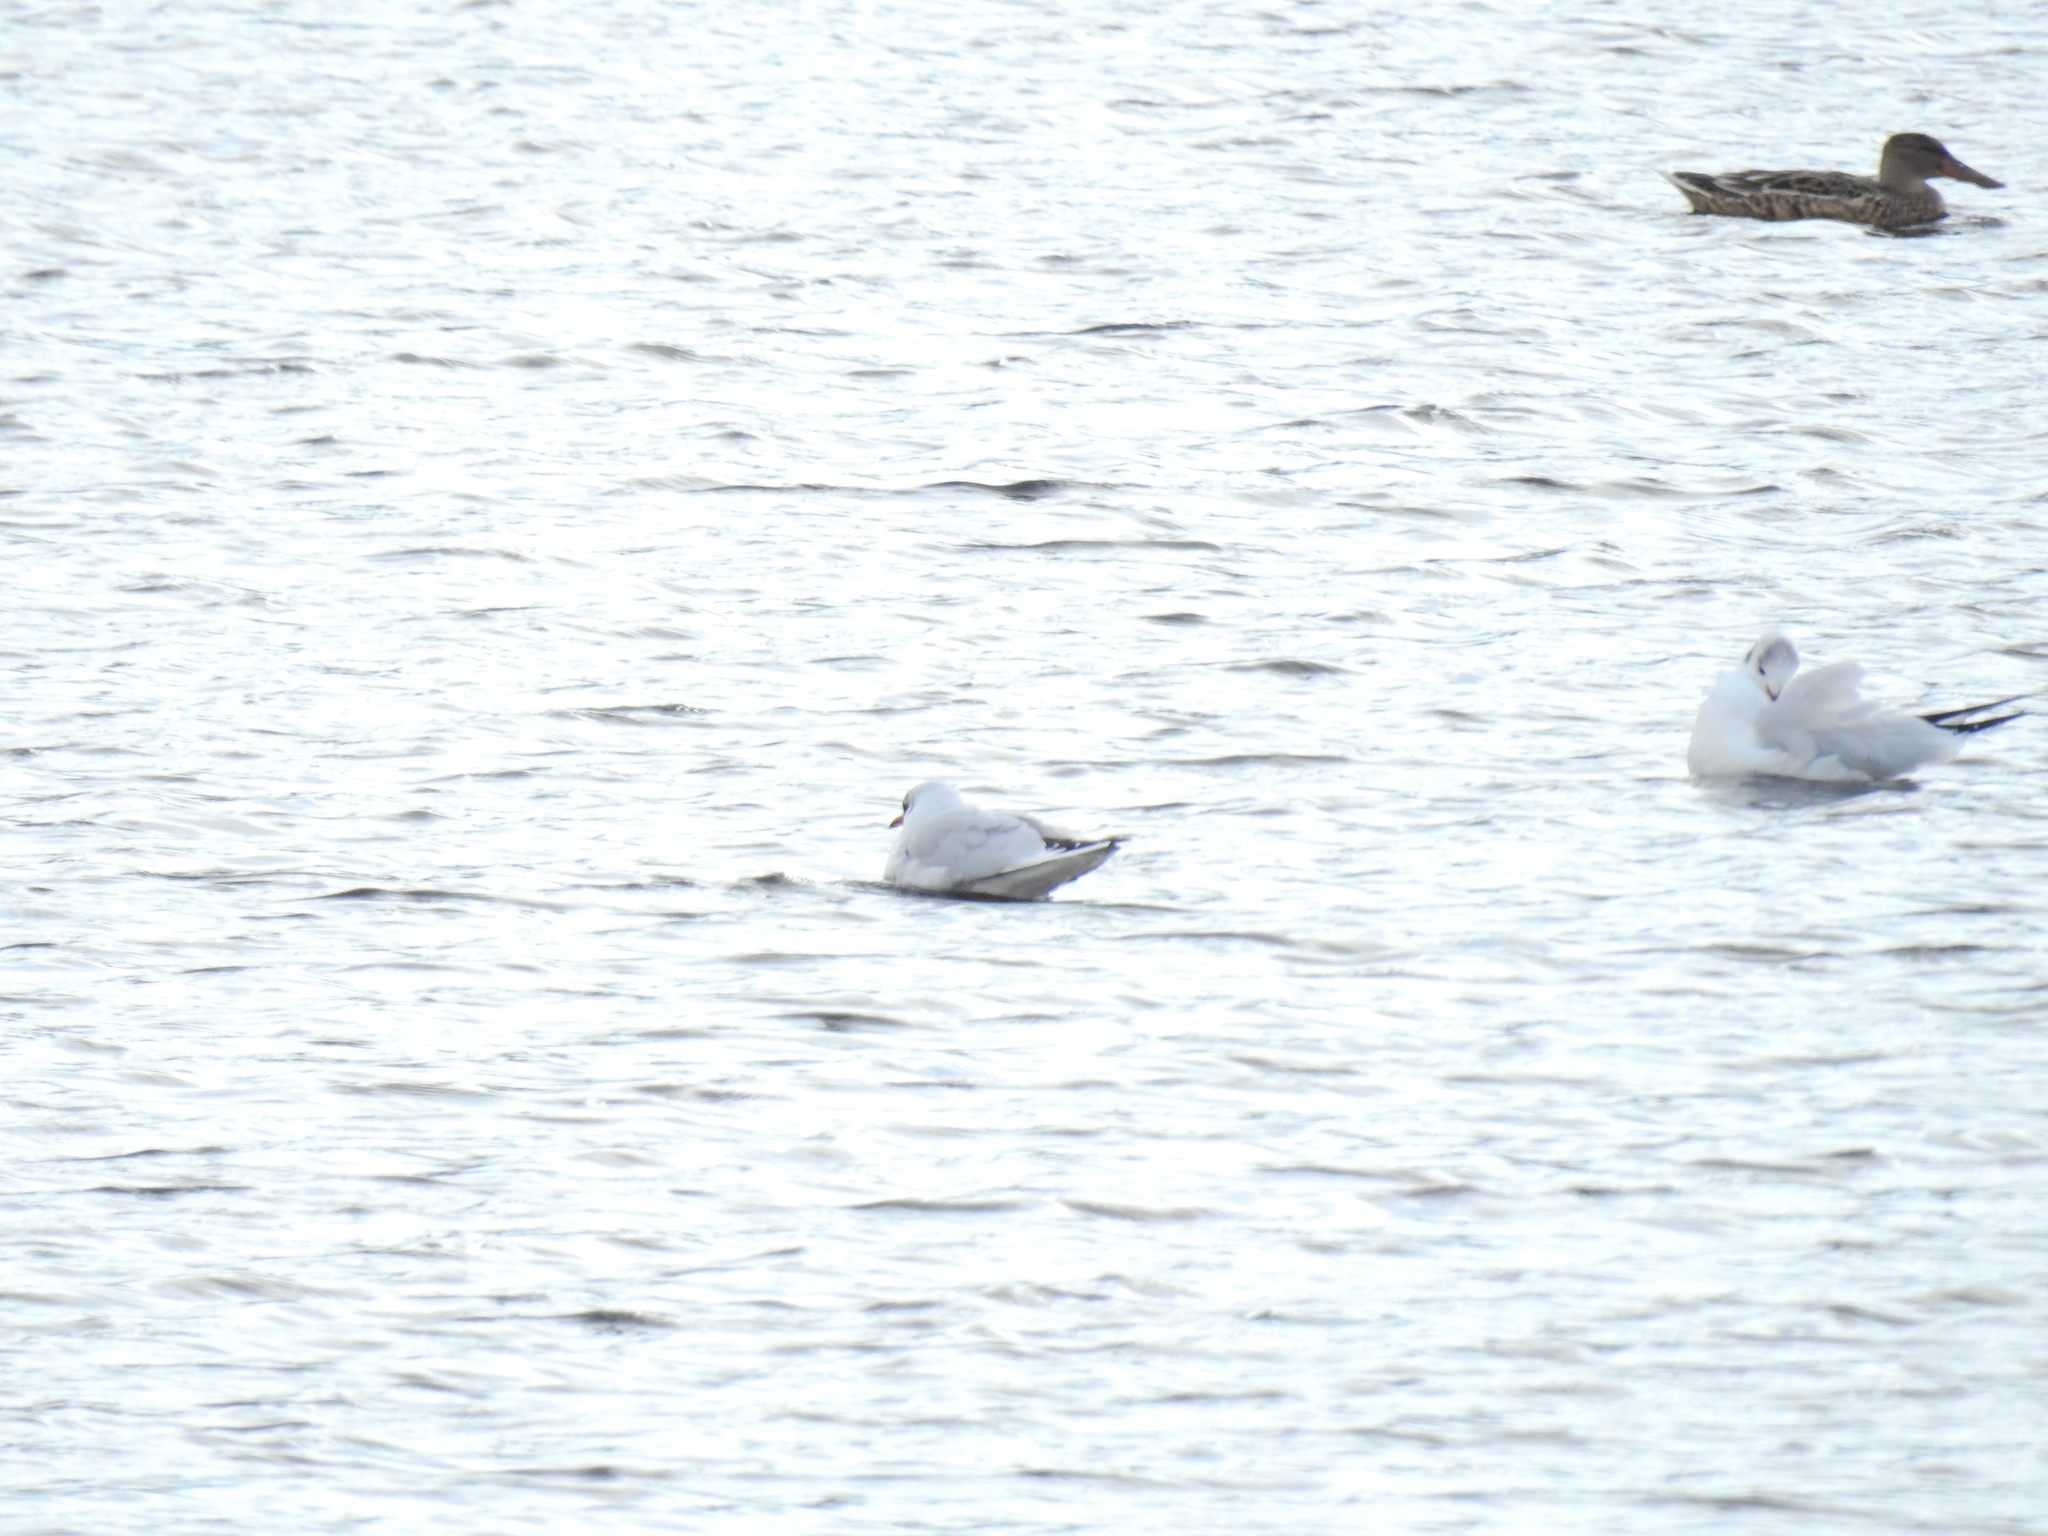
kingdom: Animalia
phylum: Chordata
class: Aves
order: Charadriiformes
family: Laridae
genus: Chroicocephalus
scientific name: Chroicocephalus ridibundus
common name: Black-headed gull
